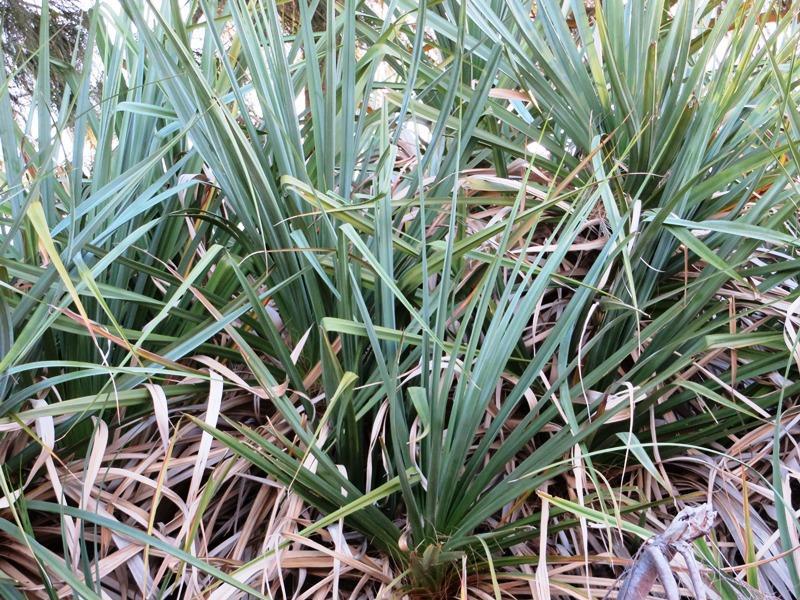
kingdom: Plantae
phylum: Tracheophyta
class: Liliopsida
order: Poales
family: Thurniaceae
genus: Prionium
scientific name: Prionium serratum
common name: Palmiet
